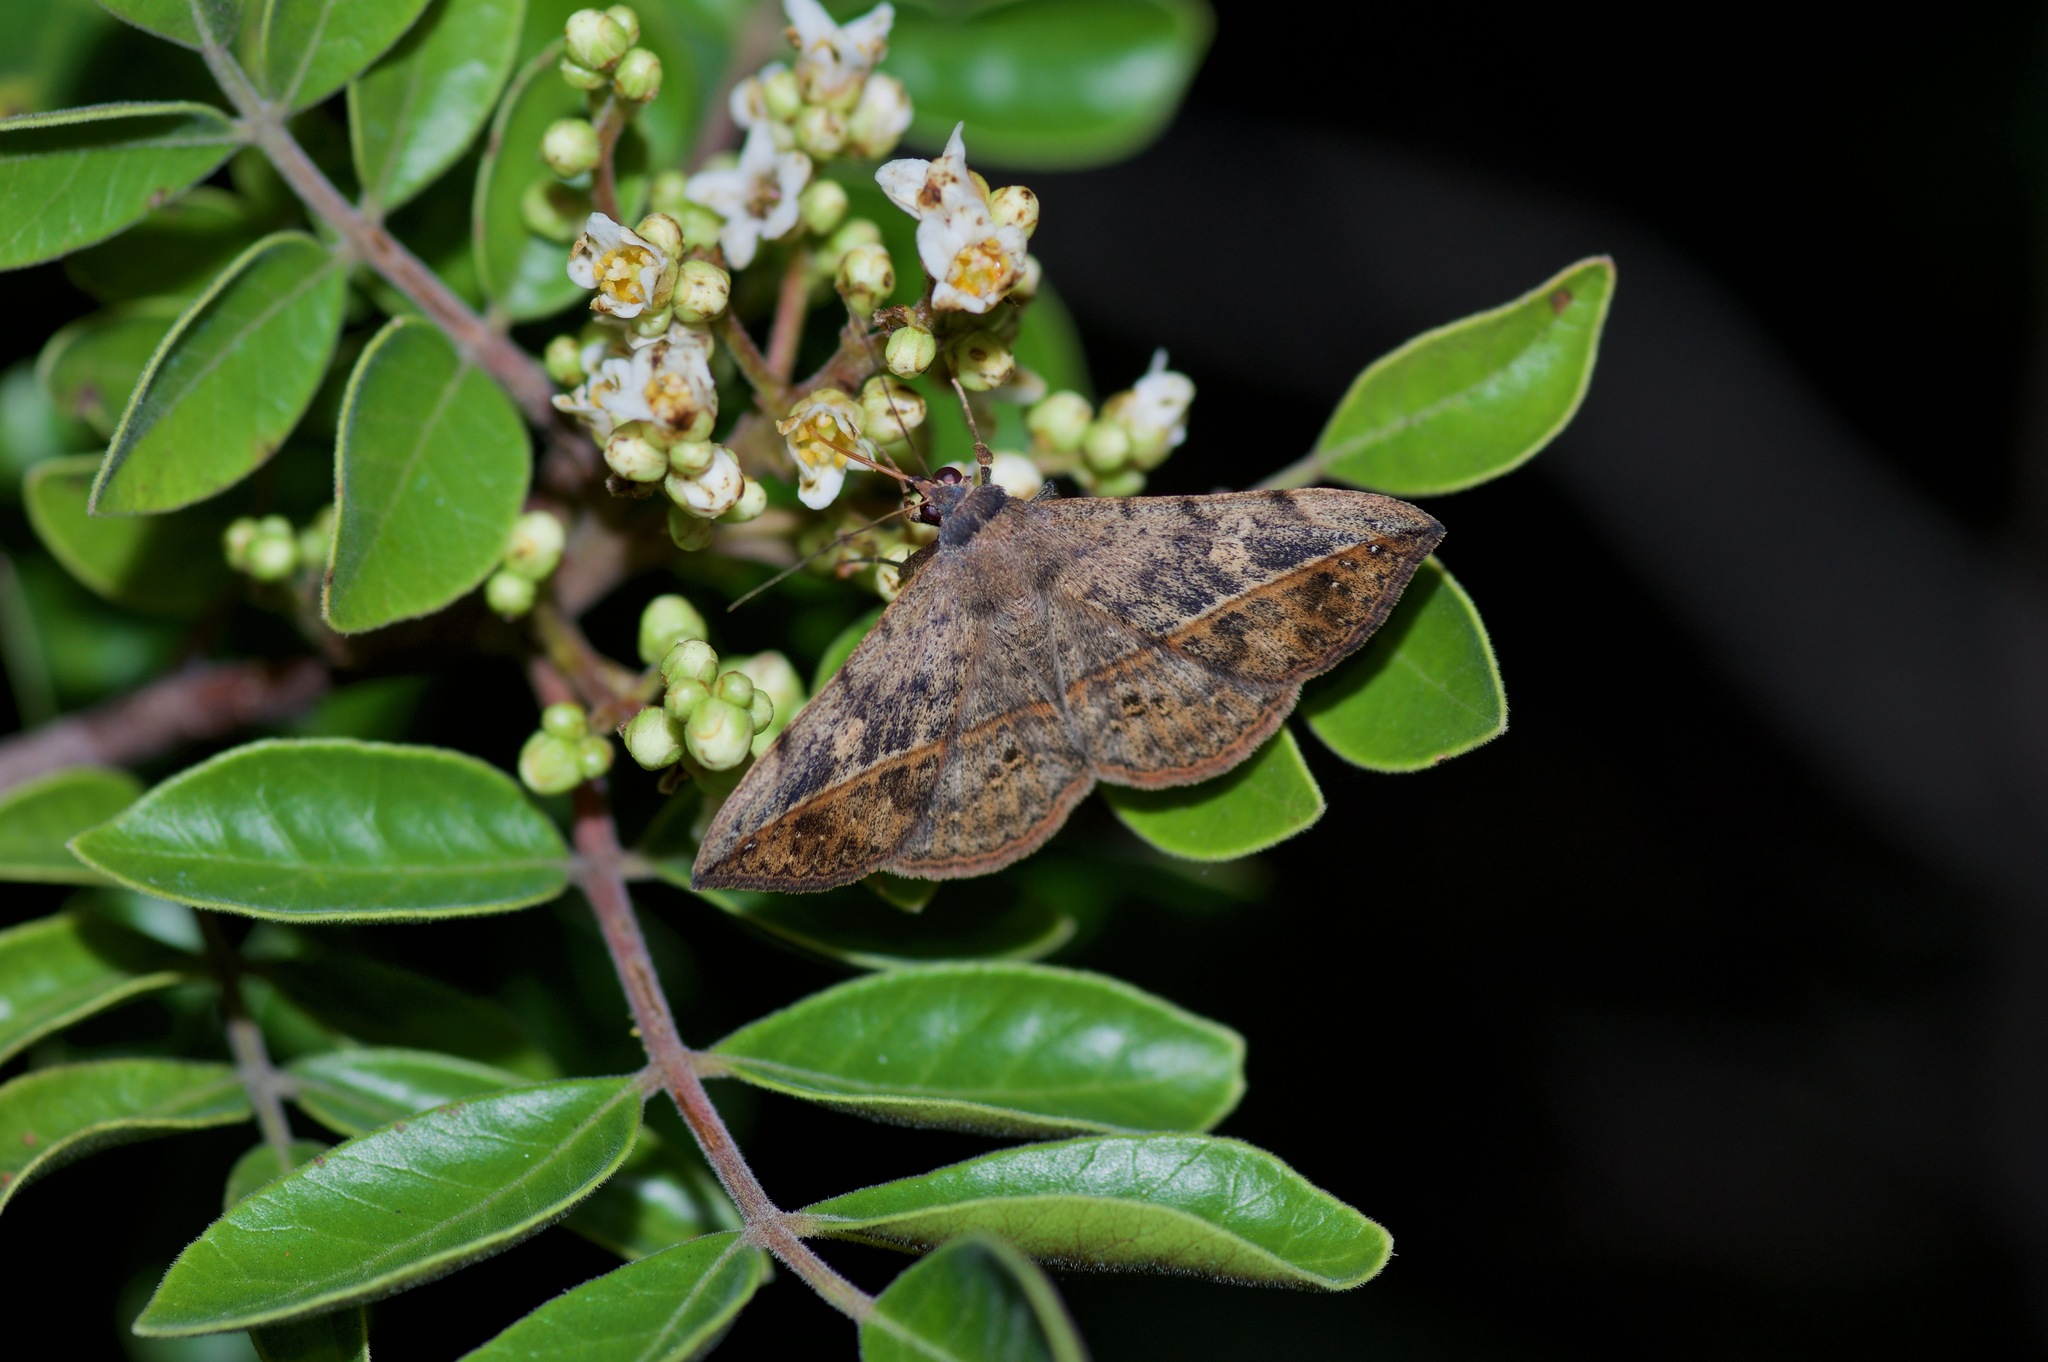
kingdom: Animalia
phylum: Arthropoda
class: Insecta
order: Lepidoptera
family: Erebidae
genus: Anticarsia
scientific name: Anticarsia gemmatalis
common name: Cutworm moth
